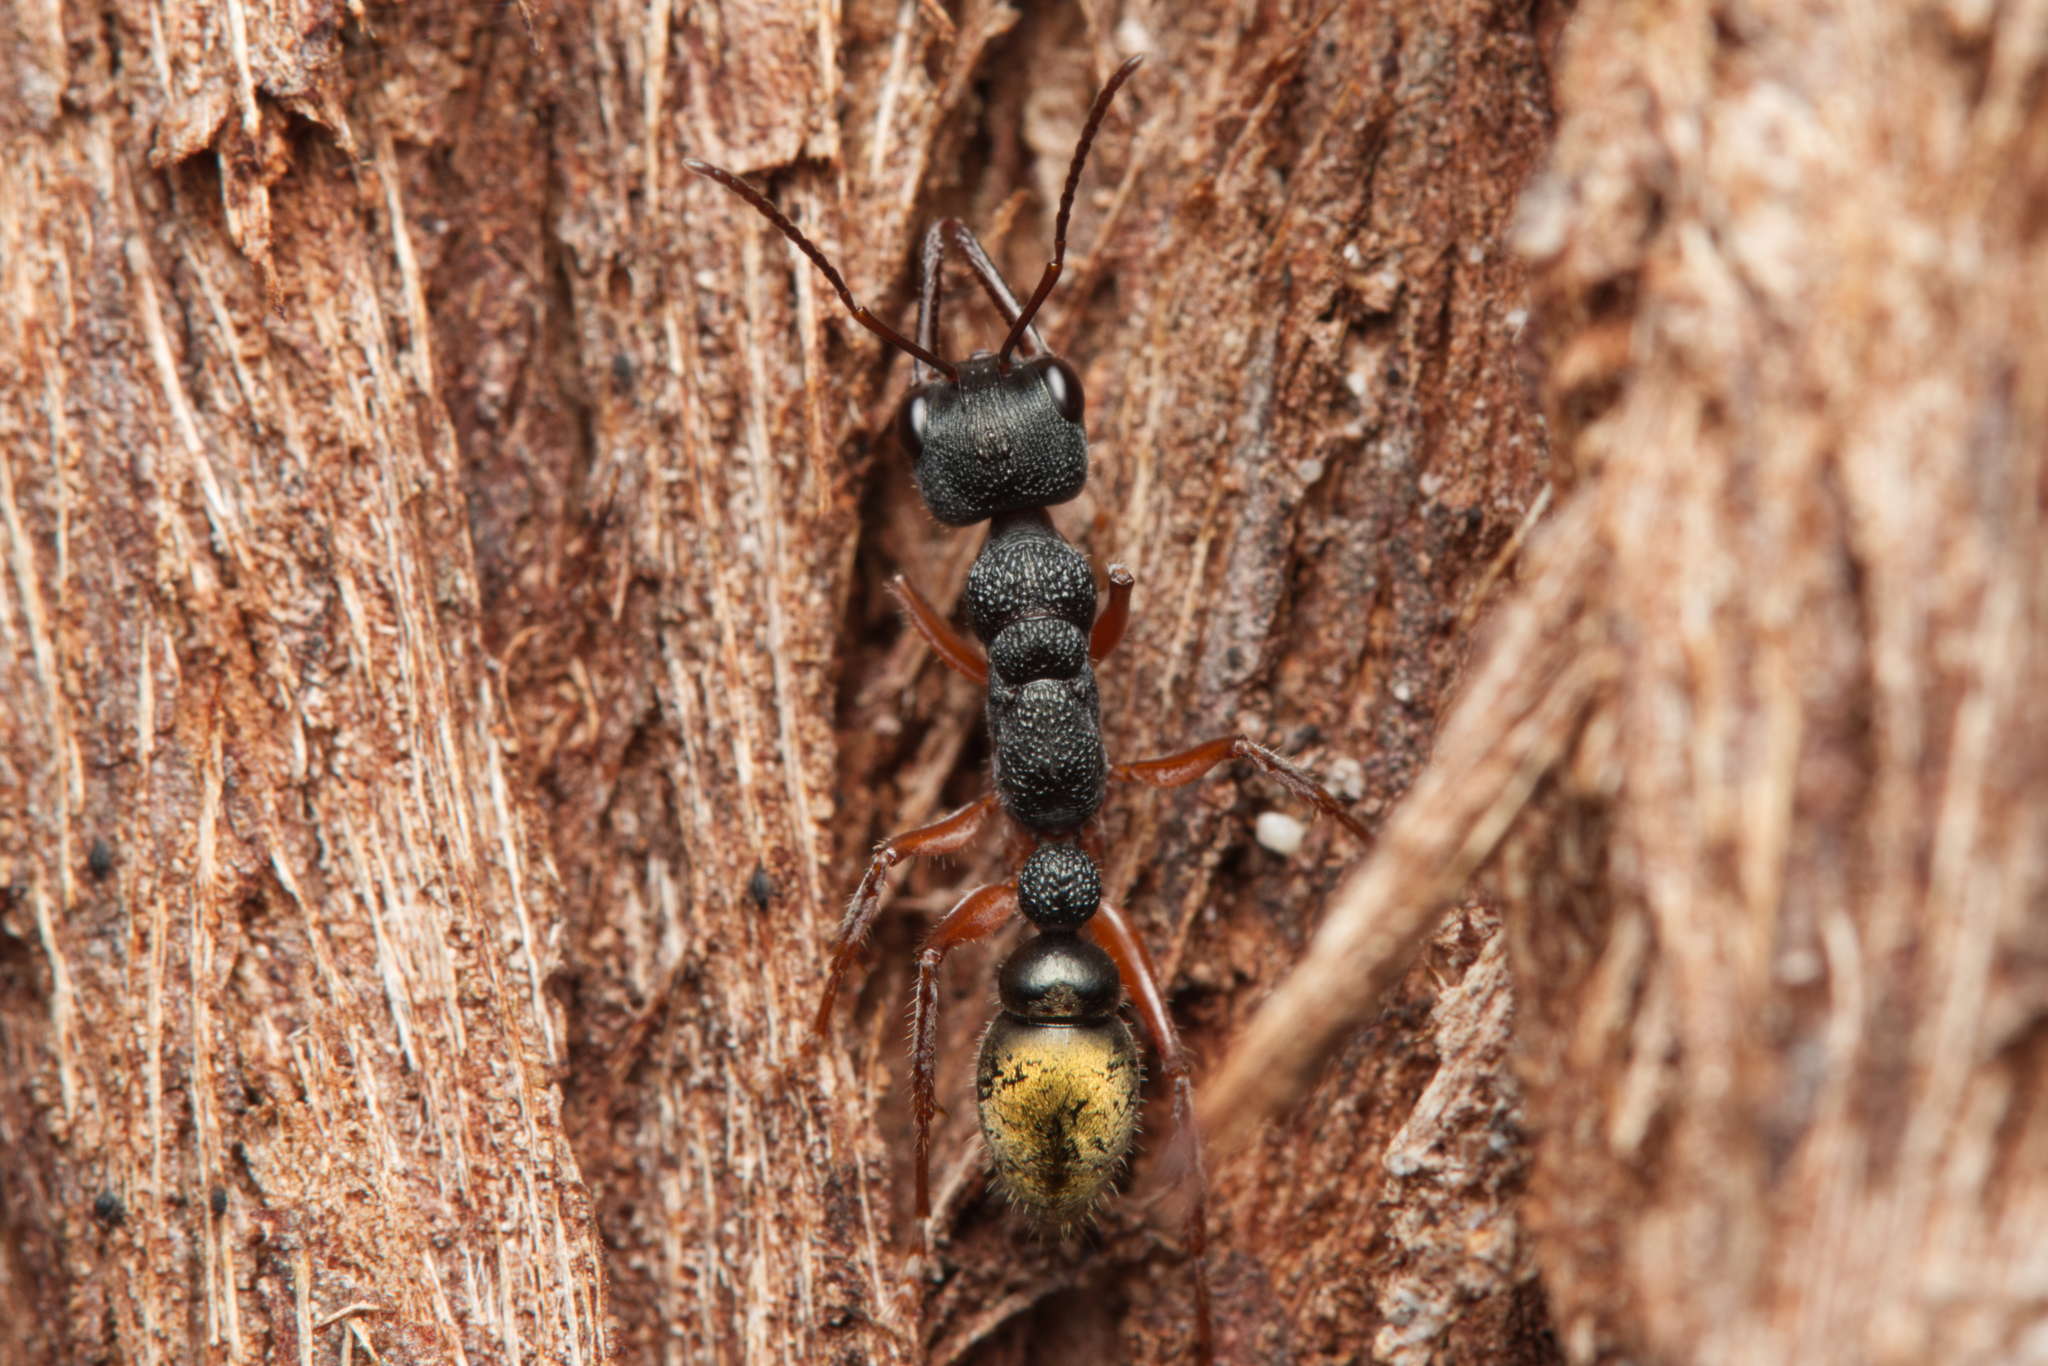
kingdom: Animalia
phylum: Arthropoda
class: Insecta
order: Hymenoptera
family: Formicidae
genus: Myrmecia
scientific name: Myrmecia fulvipes
